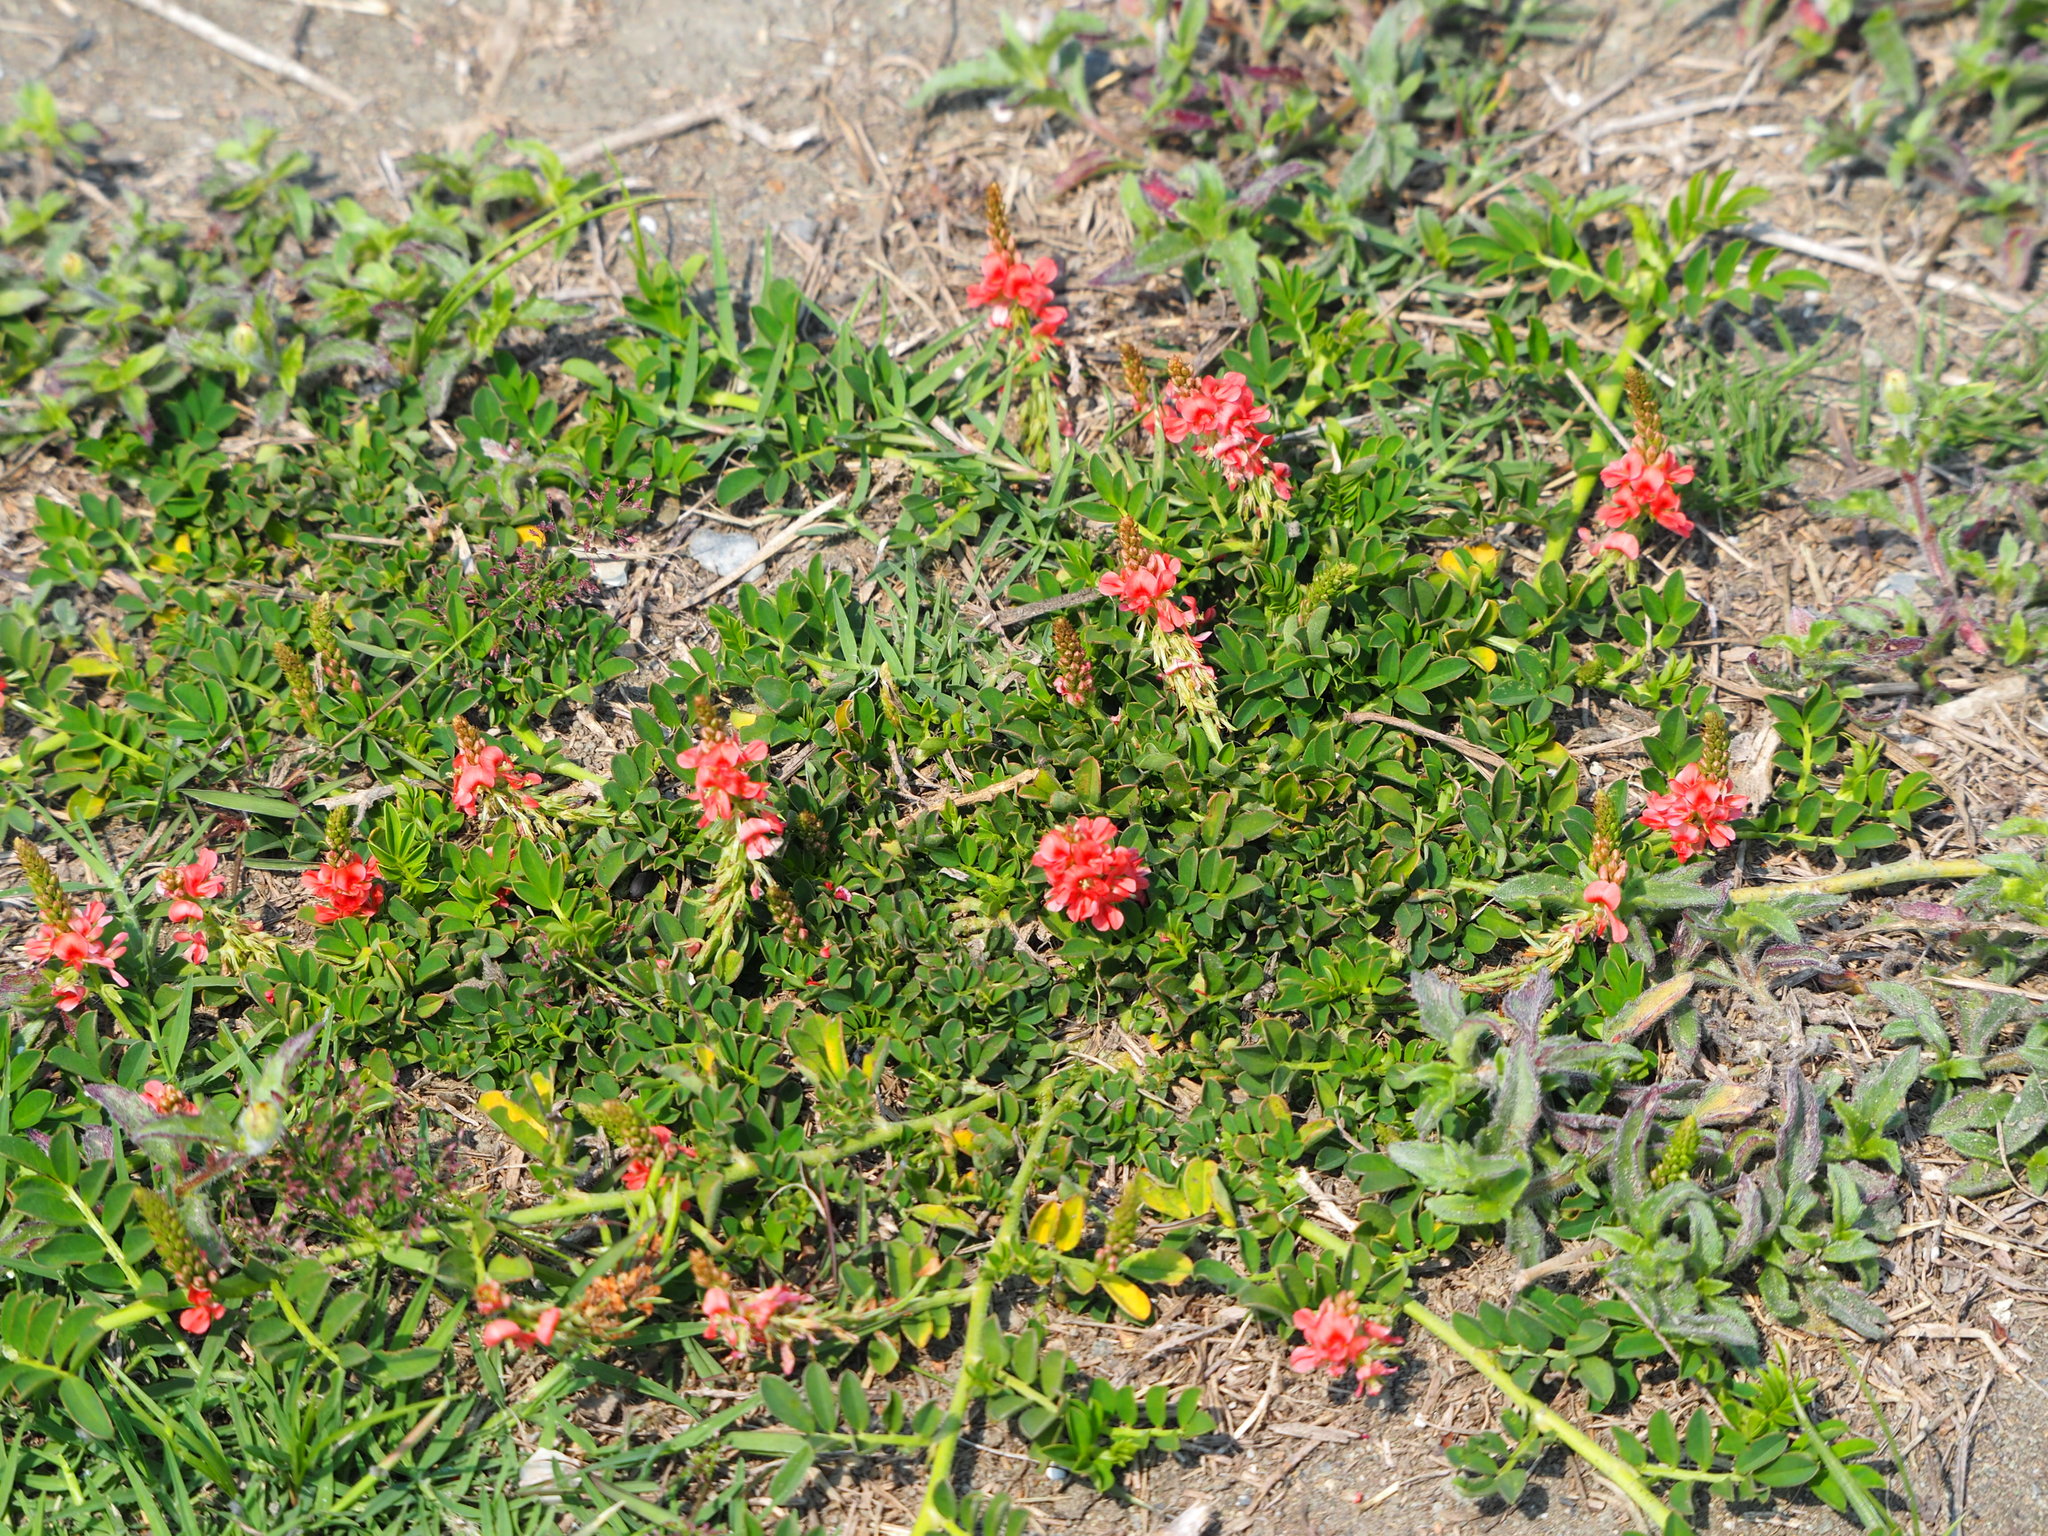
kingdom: Plantae
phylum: Tracheophyta
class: Magnoliopsida
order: Fabales
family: Fabaceae
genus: Indigofera
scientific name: Indigofera spicata
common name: Creeping indigo
